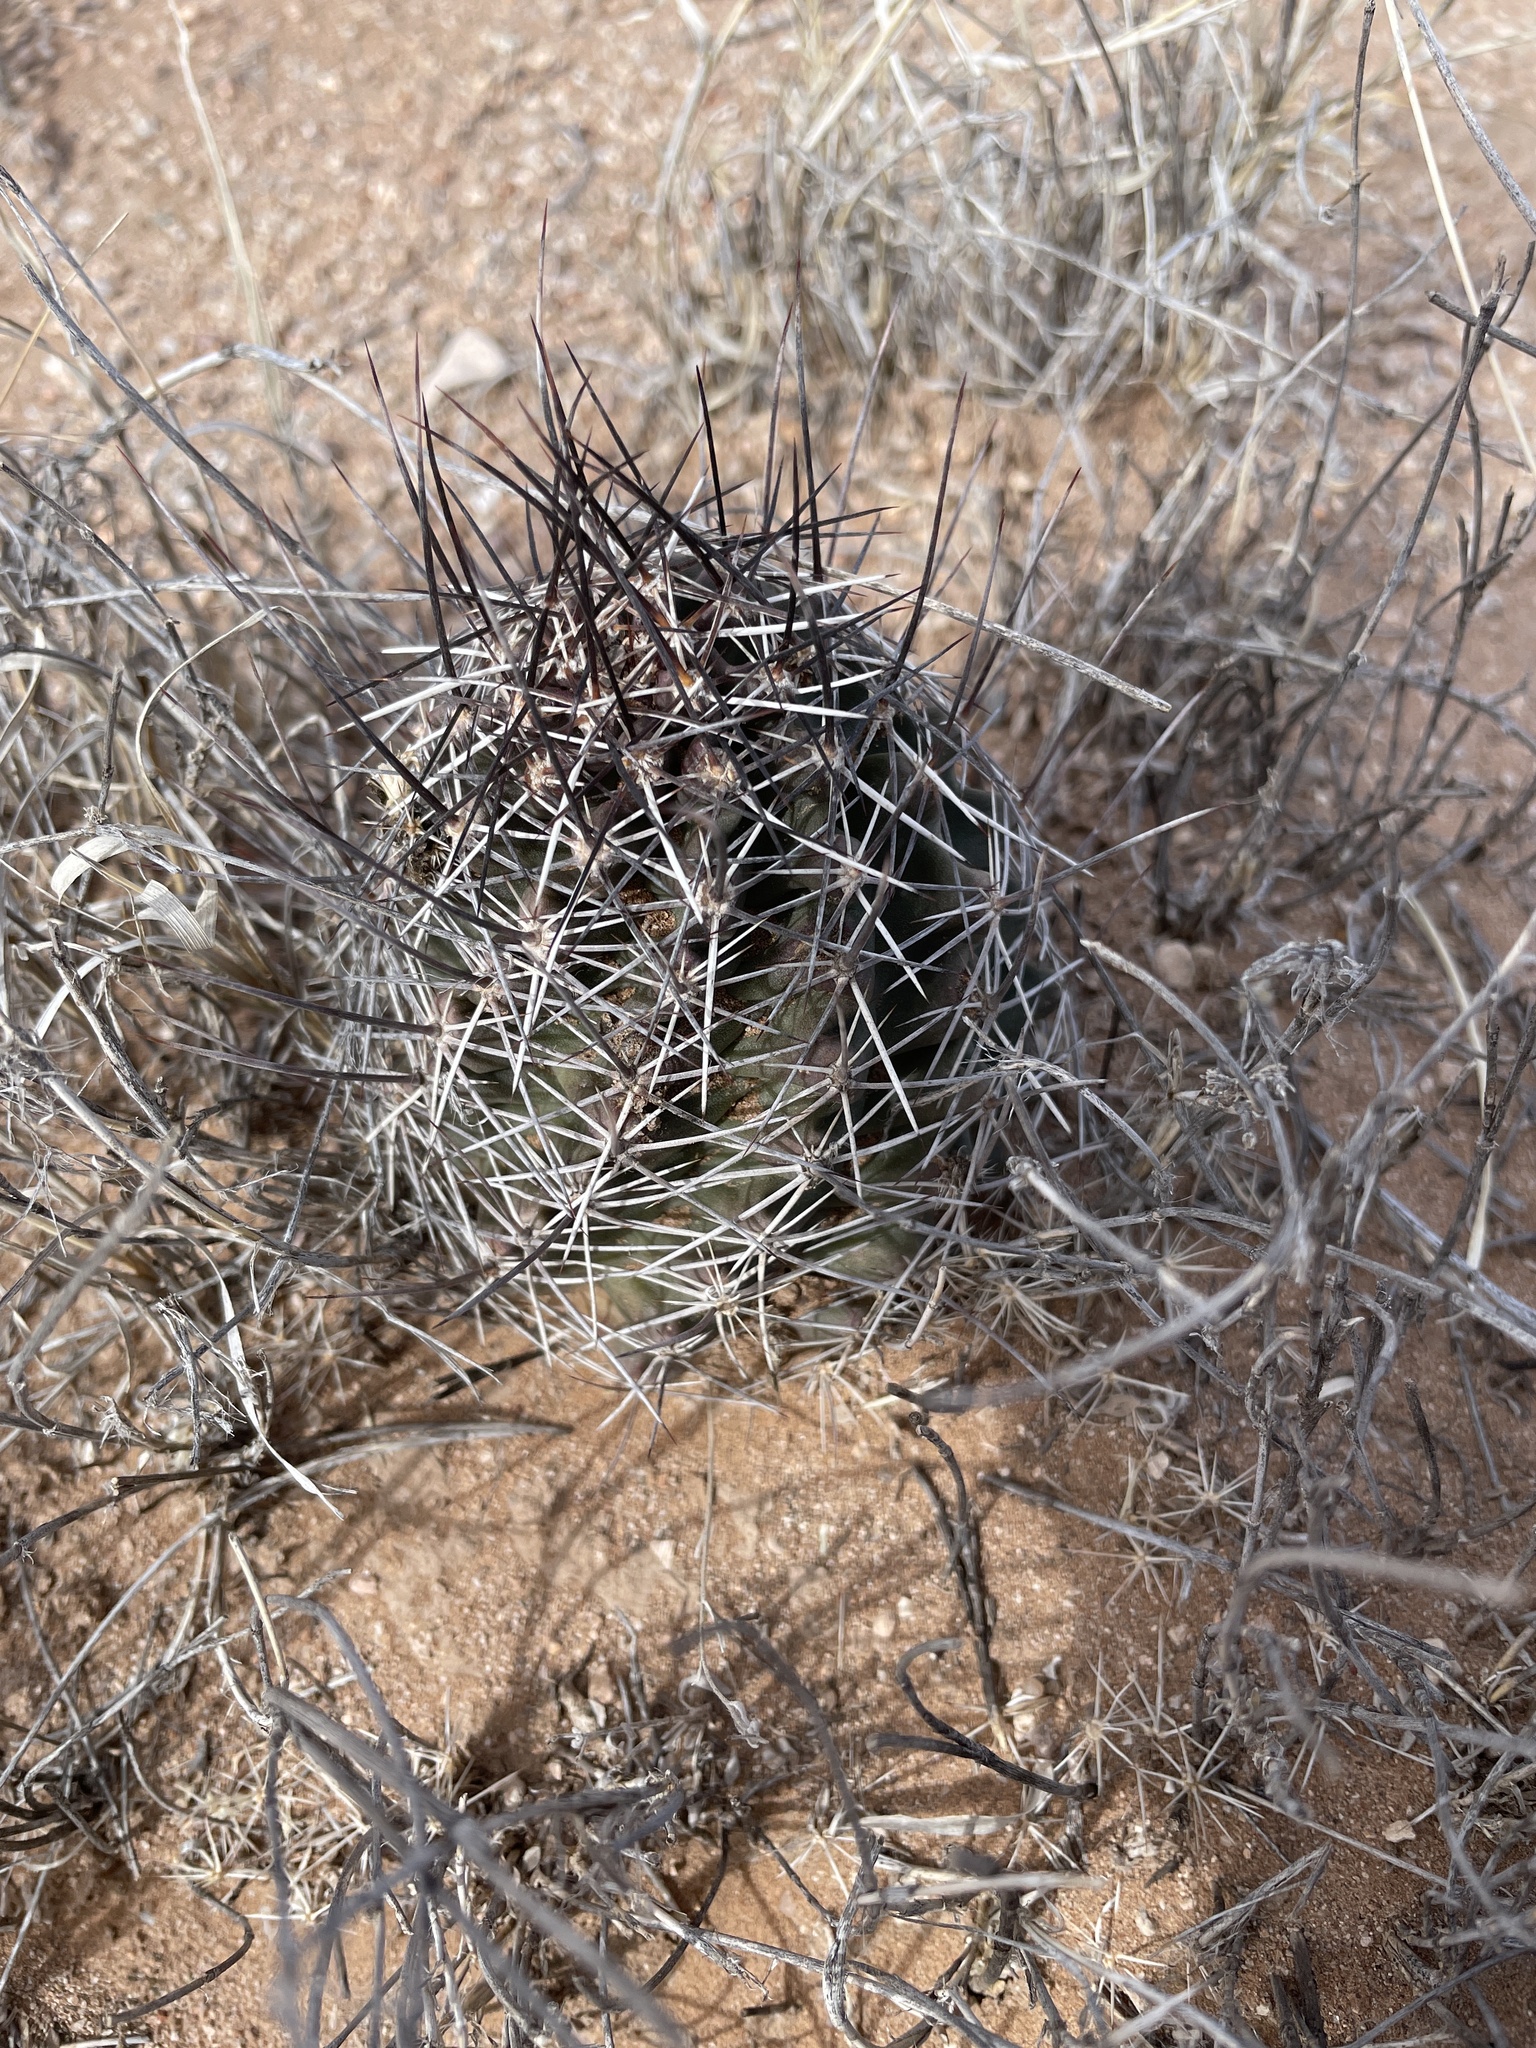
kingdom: Plantae
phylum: Tracheophyta
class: Magnoliopsida
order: Caryophyllales
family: Cactaceae
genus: Echinocereus
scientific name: Echinocereus fendleri
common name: Fendler's hedgehog cactus
